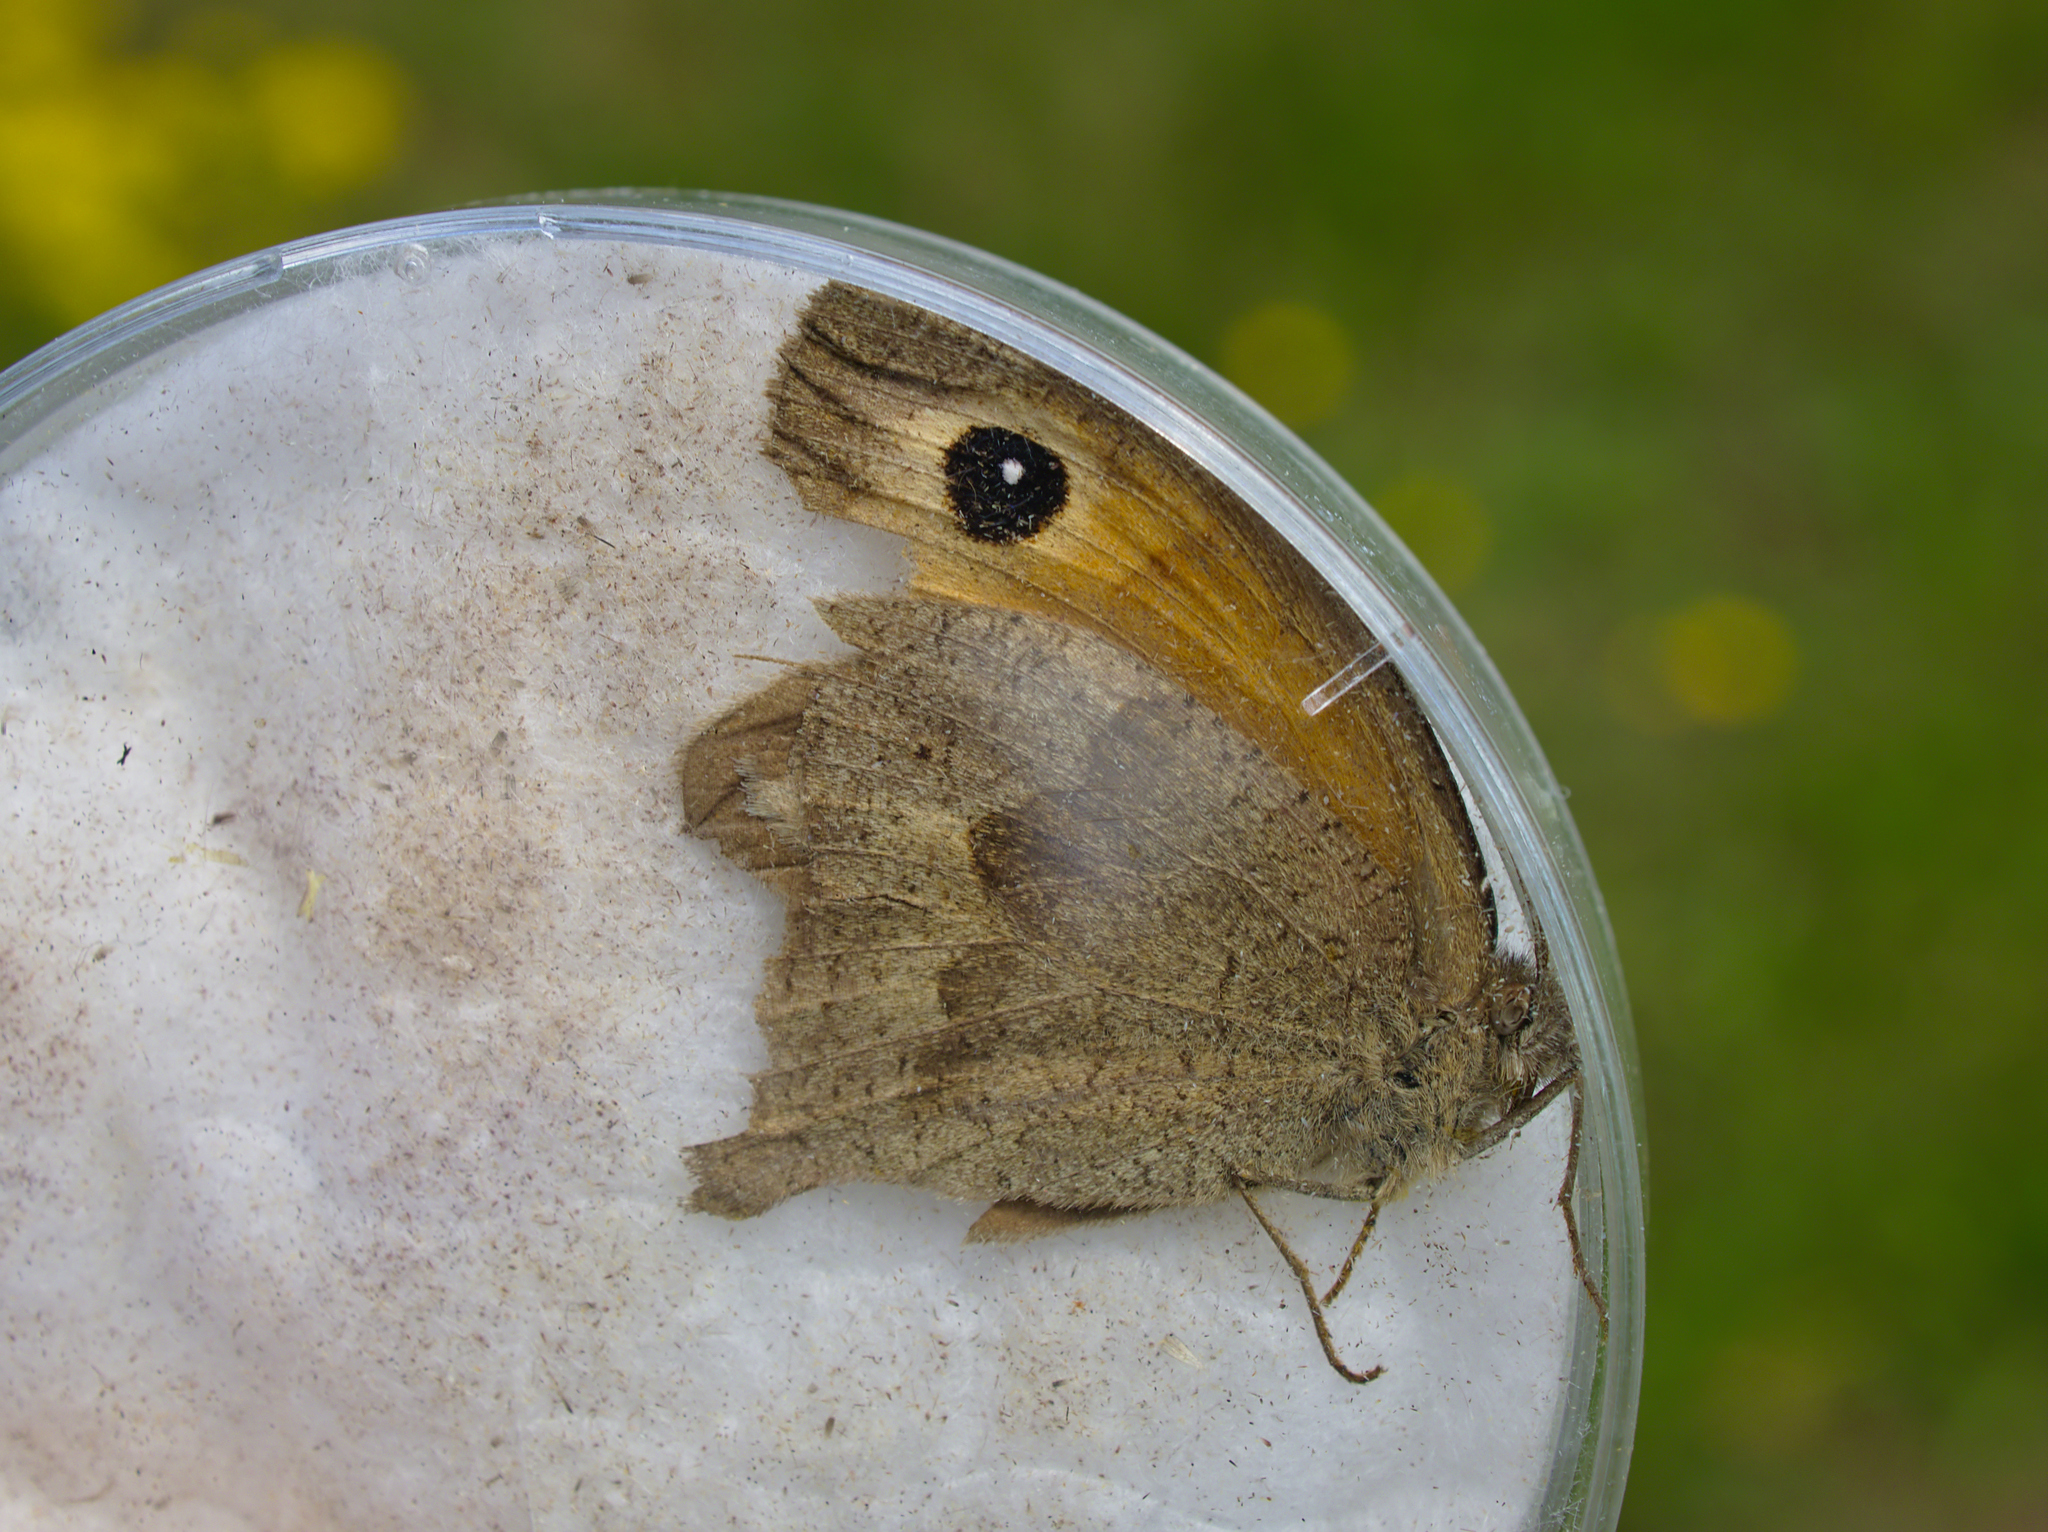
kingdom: Animalia
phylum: Arthropoda
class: Insecta
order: Lepidoptera
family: Nymphalidae
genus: Maniola
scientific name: Maniola jurtina
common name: Meadow brown
